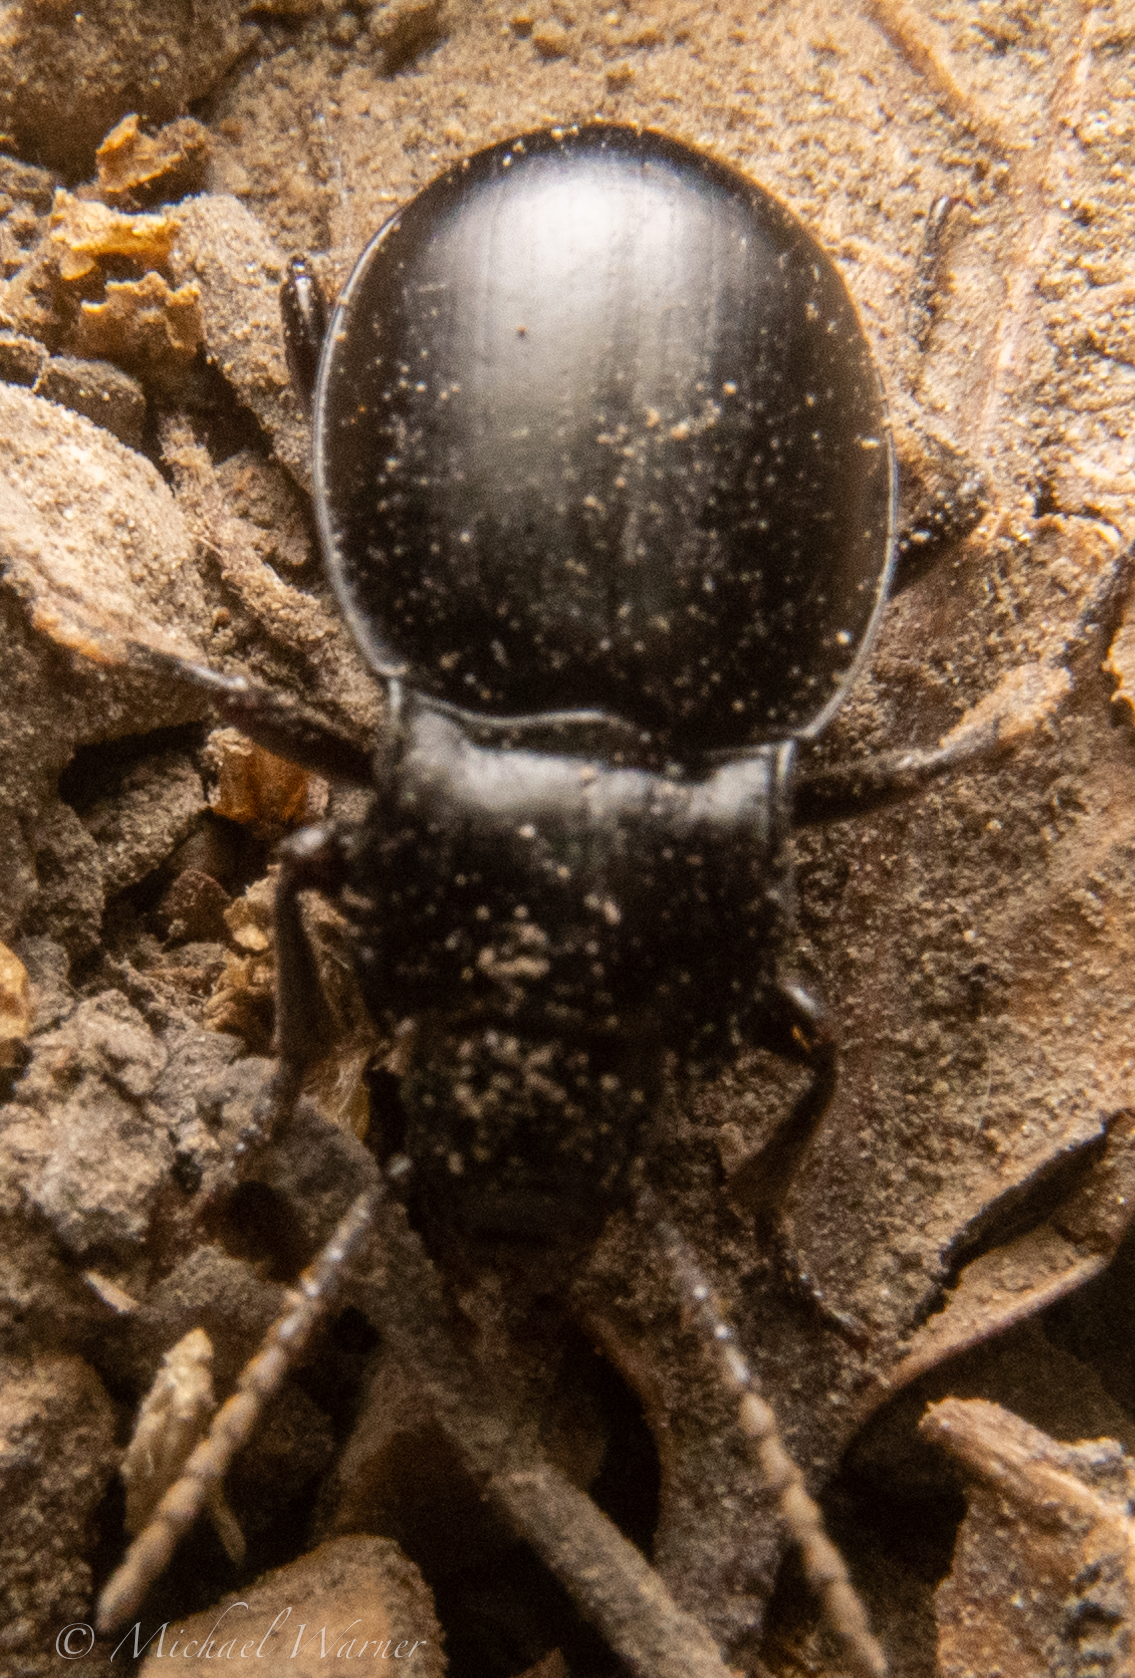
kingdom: Animalia
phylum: Arthropoda
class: Insecta
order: Coleoptera
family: Carabidae
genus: Metrius
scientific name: Metrius contractus
